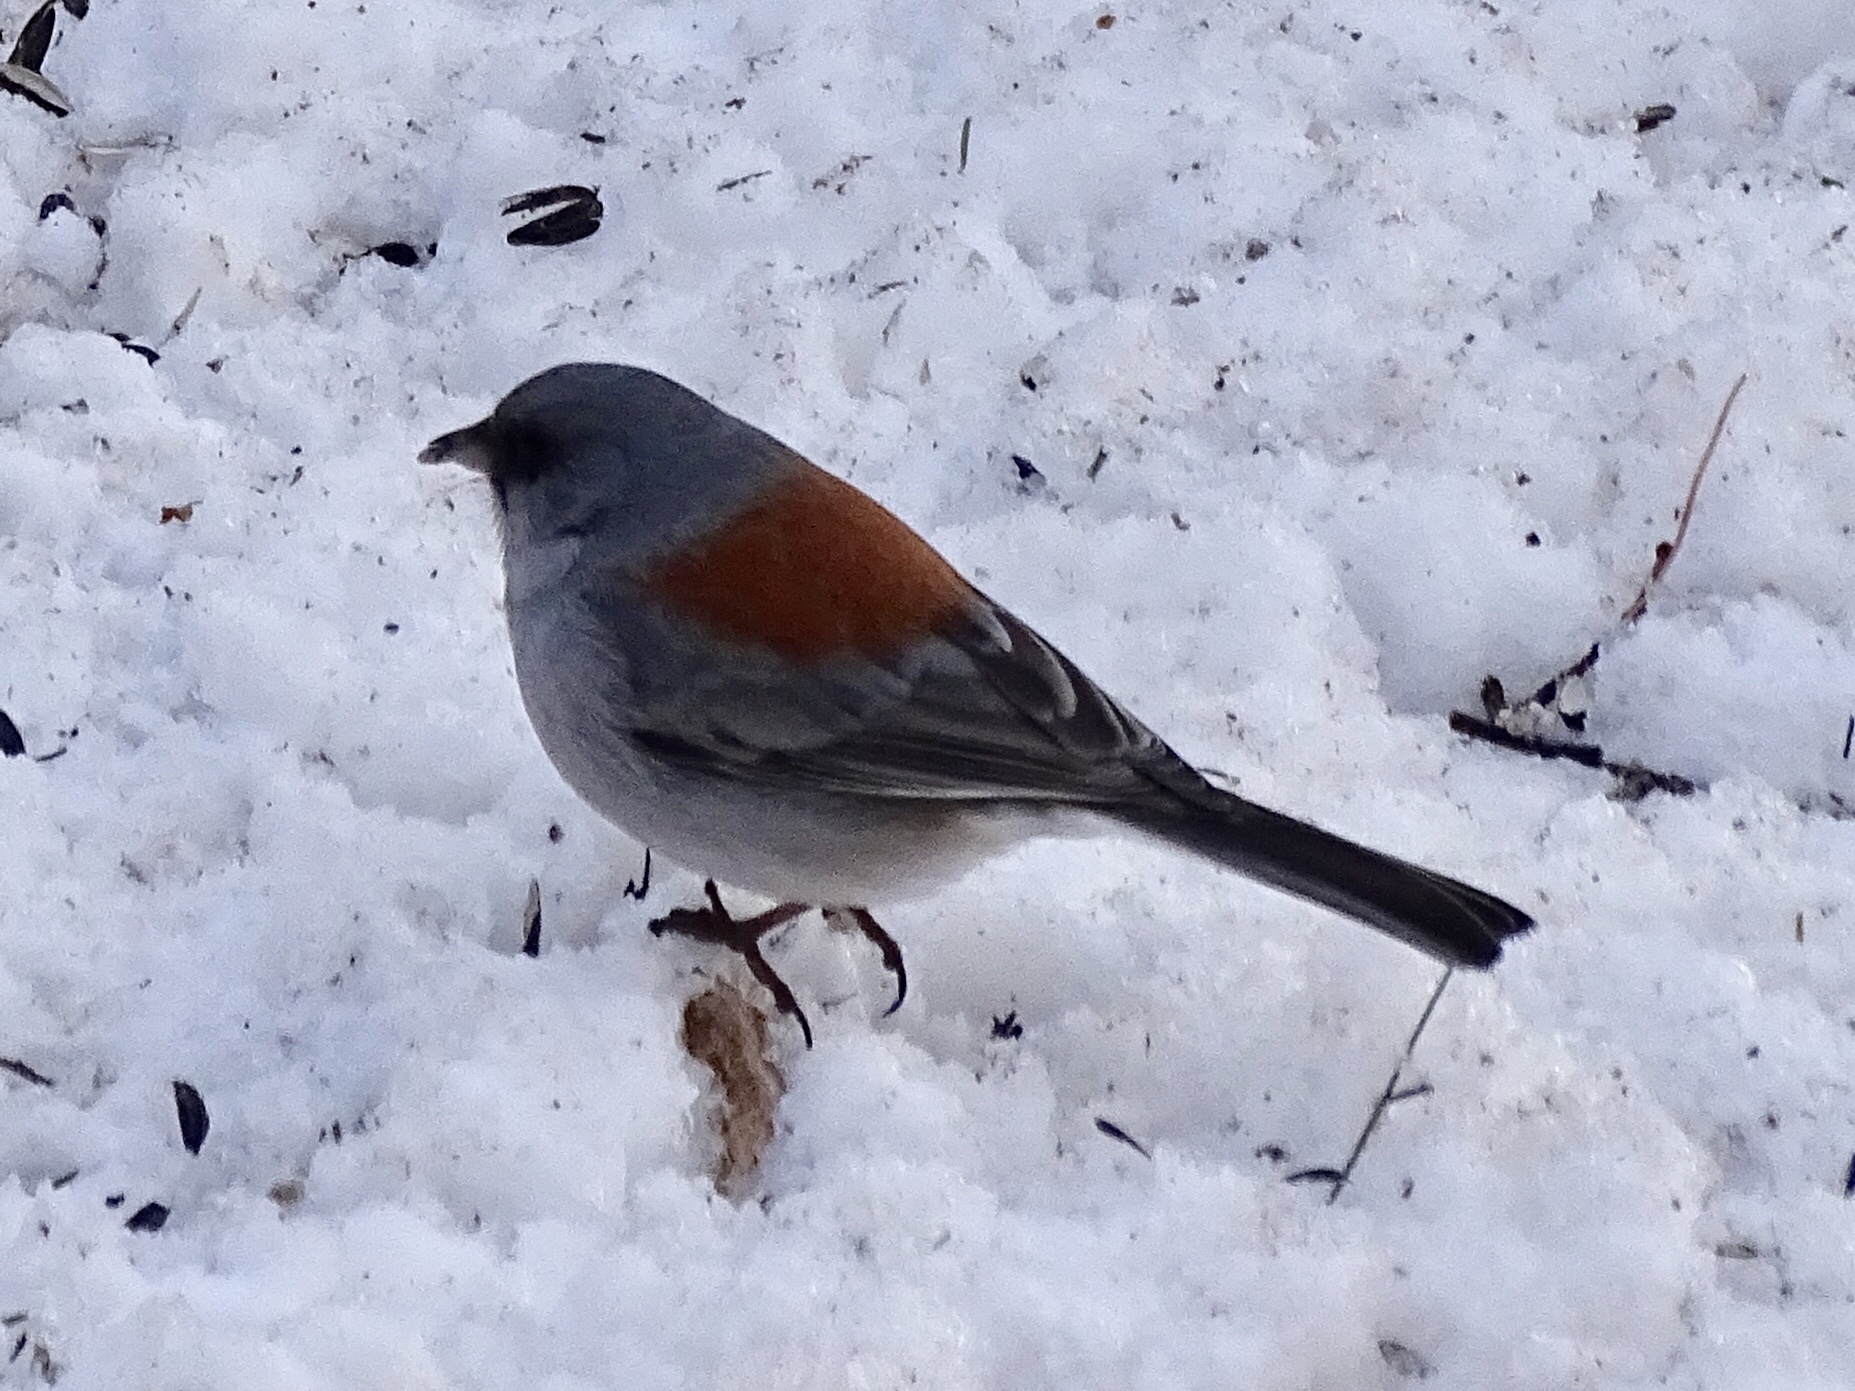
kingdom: Animalia
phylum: Chordata
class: Aves
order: Passeriformes
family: Passerellidae
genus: Junco
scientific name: Junco hyemalis
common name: Dark-eyed junco
